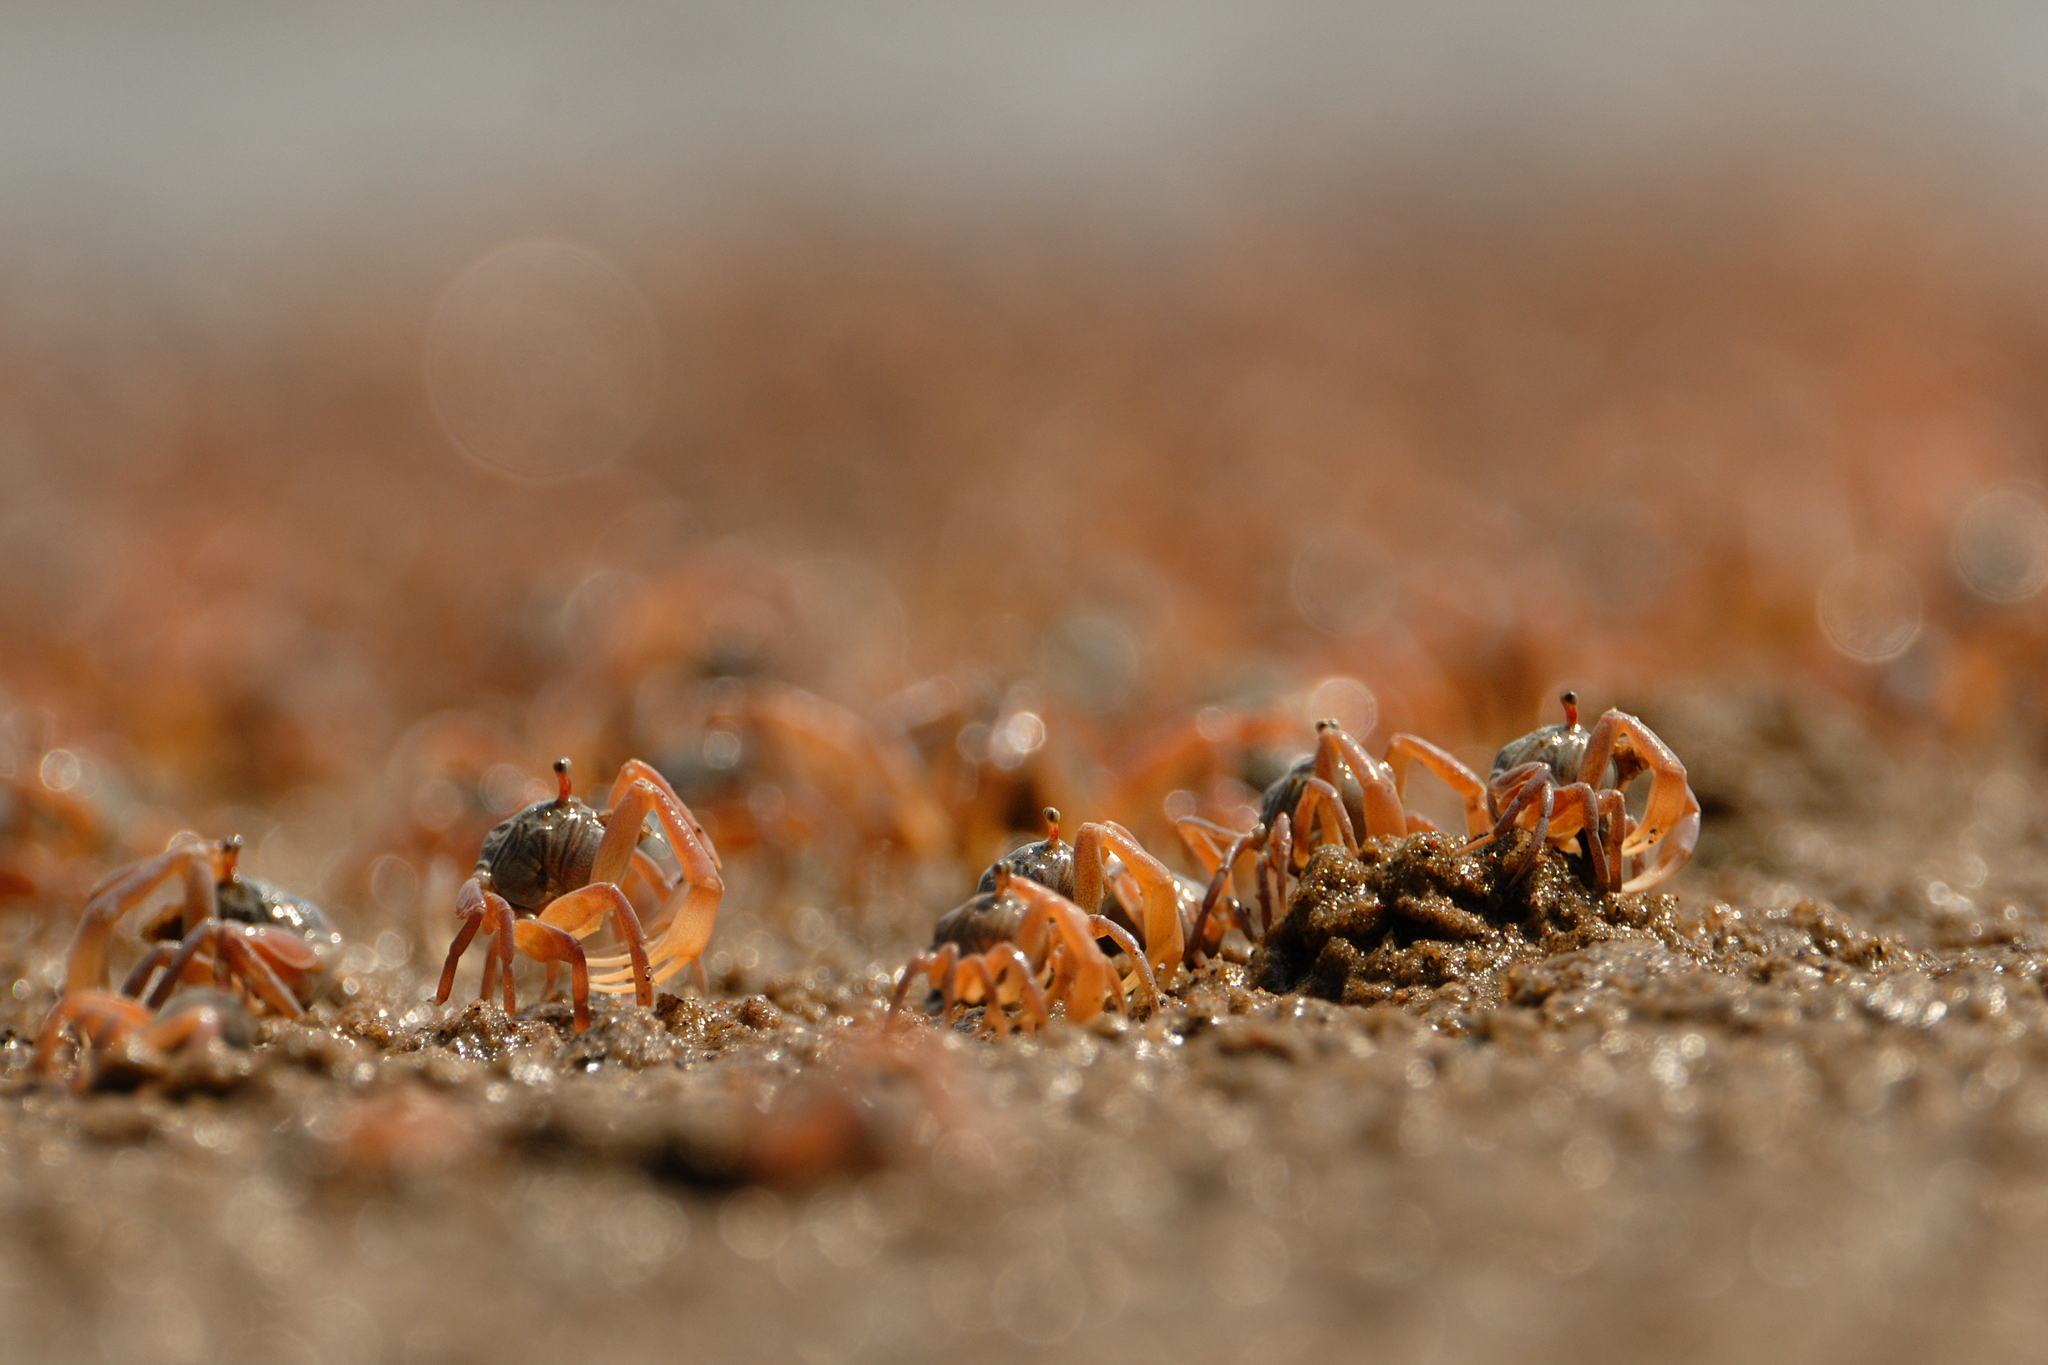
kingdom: Animalia
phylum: Arthropoda
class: Malacostraca
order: Decapoda
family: Dotillidae
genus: Dotilla
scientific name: Dotilla myctiroides
